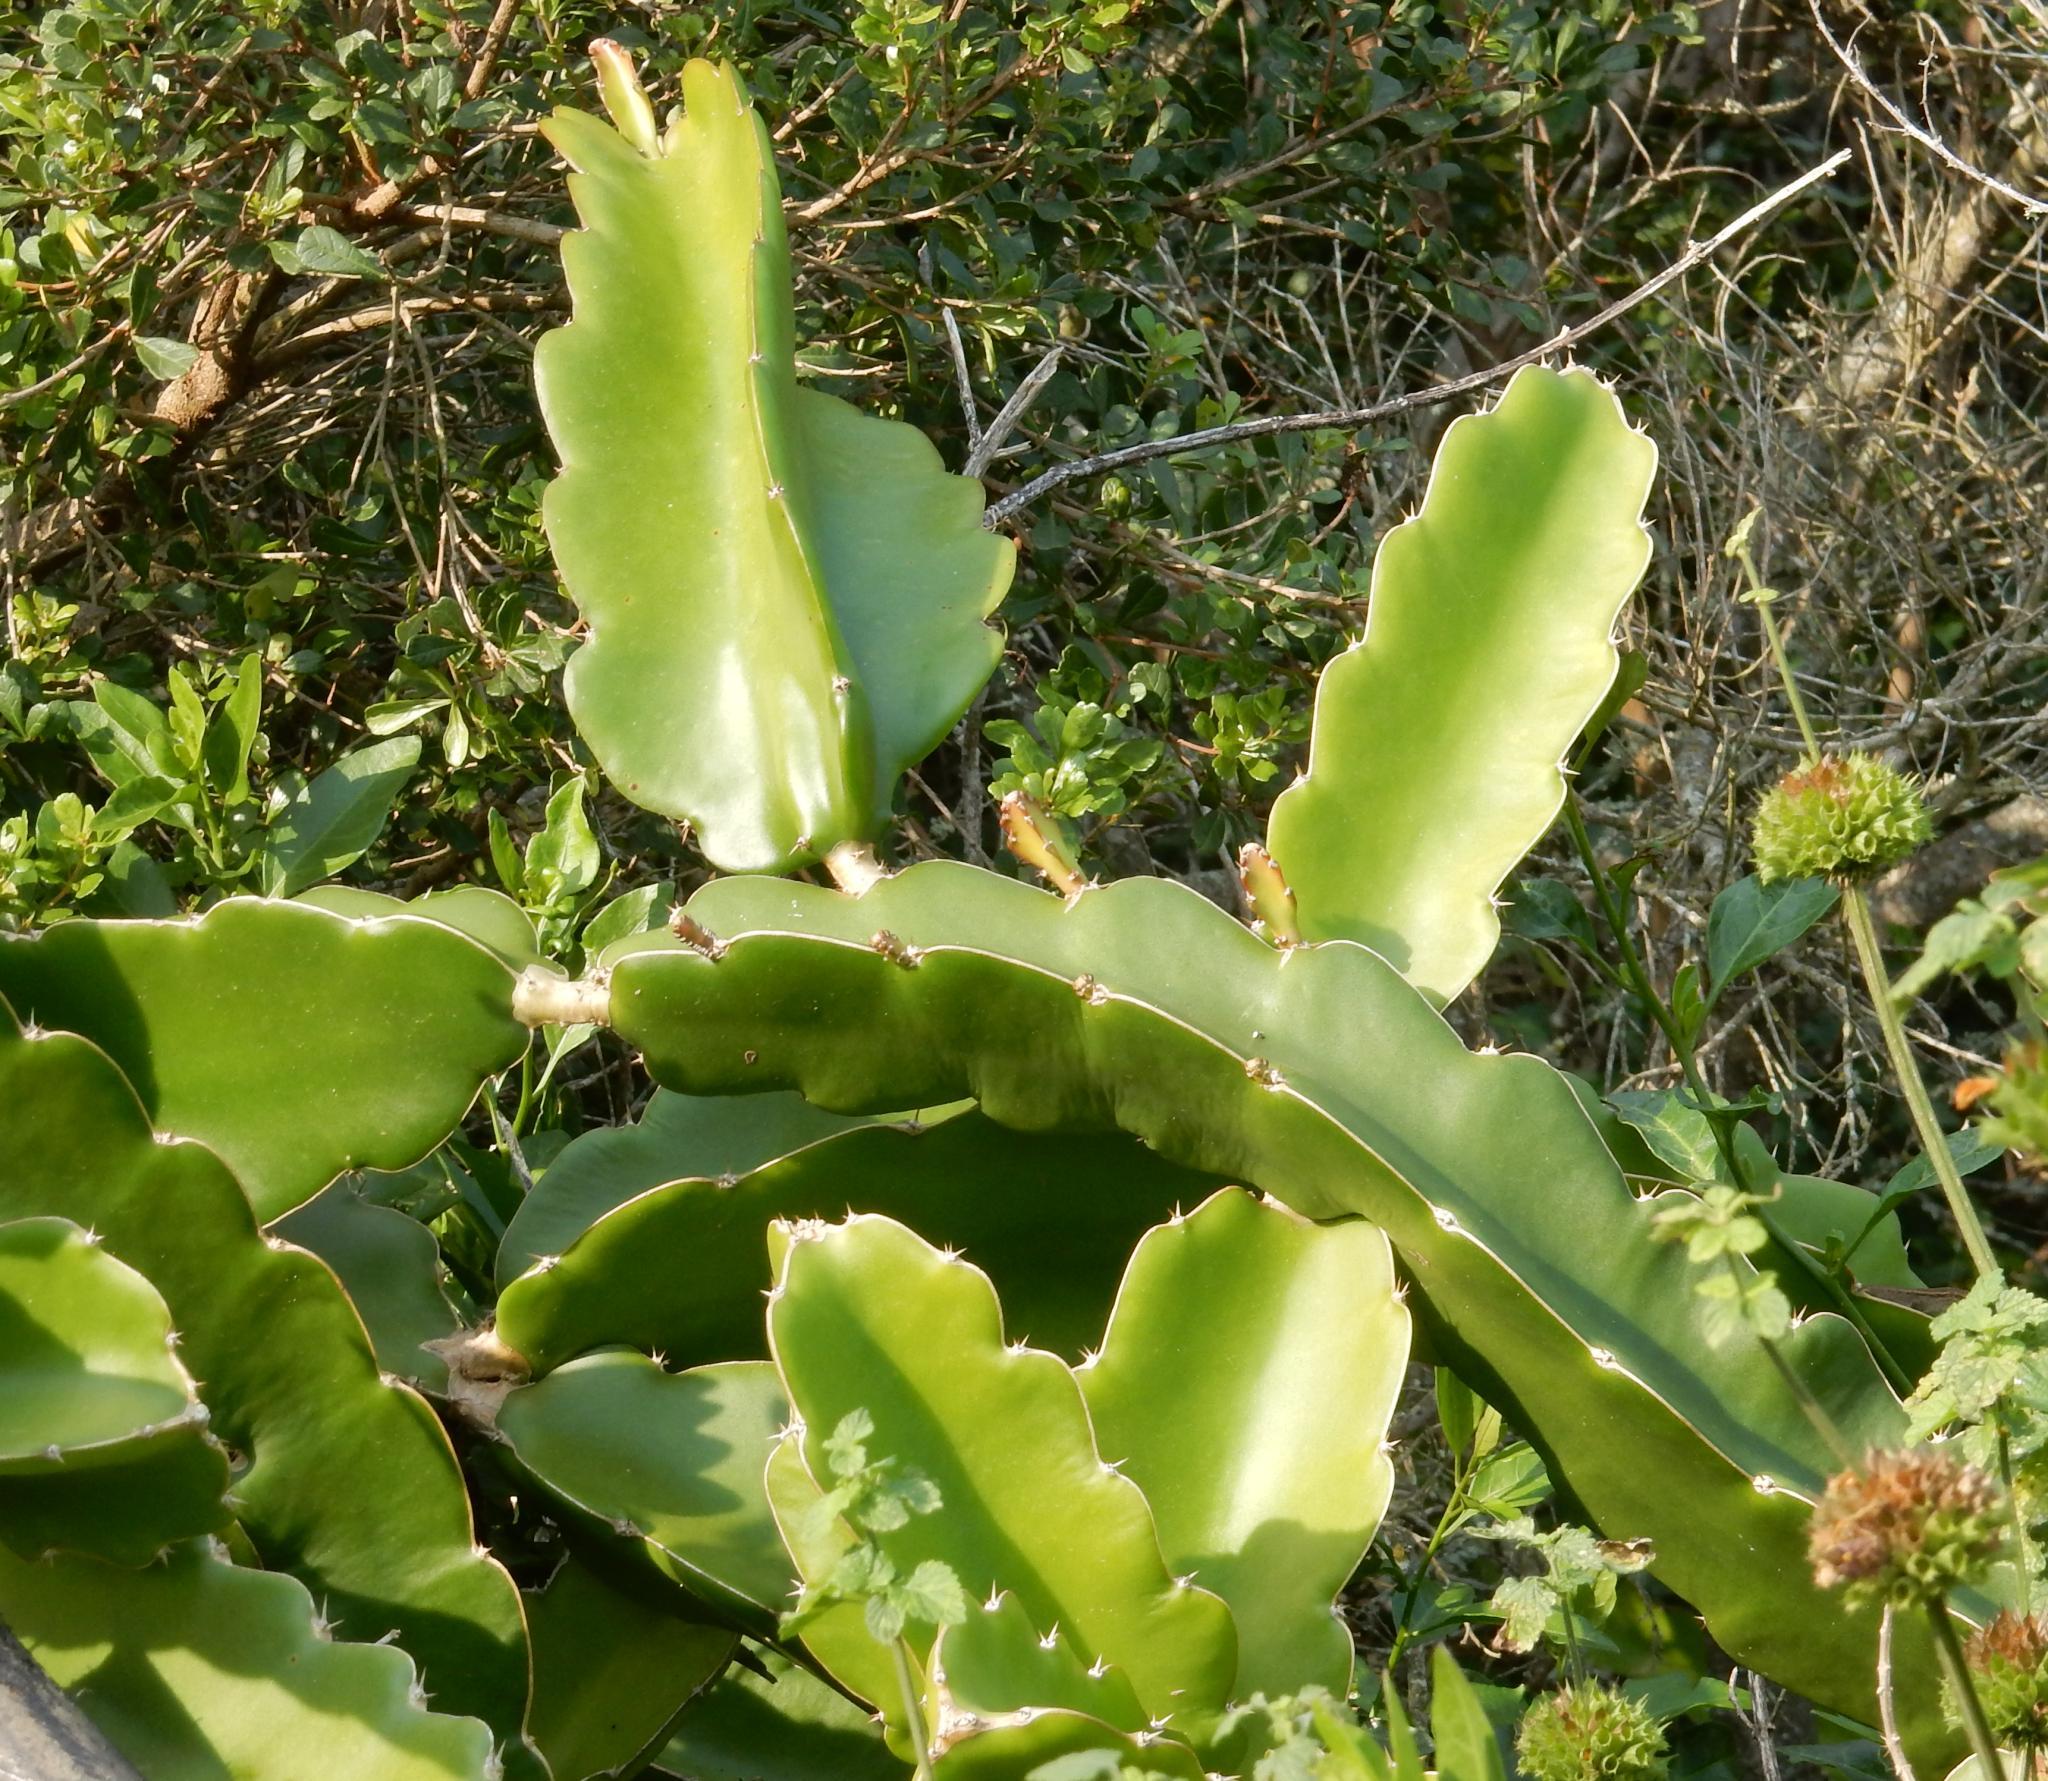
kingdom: Plantae
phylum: Tracheophyta
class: Magnoliopsida
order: Caryophyllales
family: Cactaceae
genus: Selenicereus
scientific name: Selenicereus undatus
